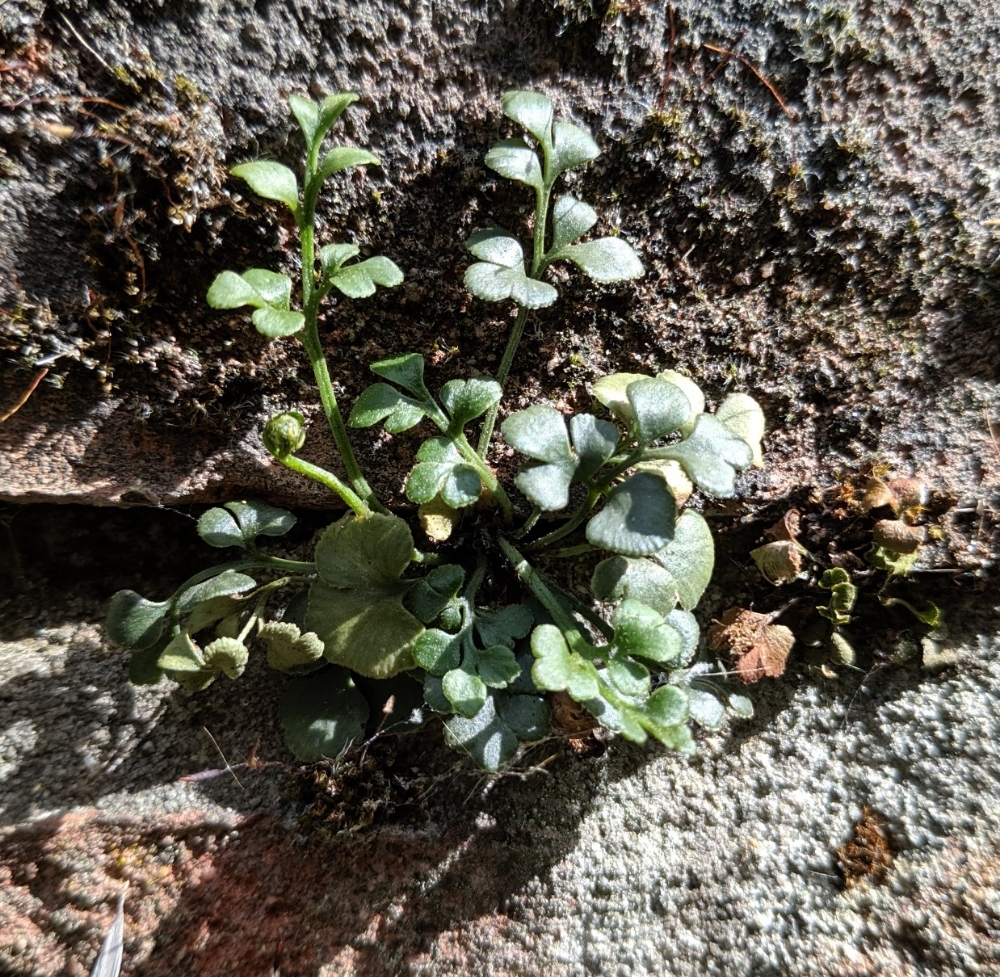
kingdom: Plantae
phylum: Tracheophyta
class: Polypodiopsida
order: Polypodiales
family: Aspleniaceae
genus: Asplenium
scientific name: Asplenium ruta-muraria
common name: Wall-rue
